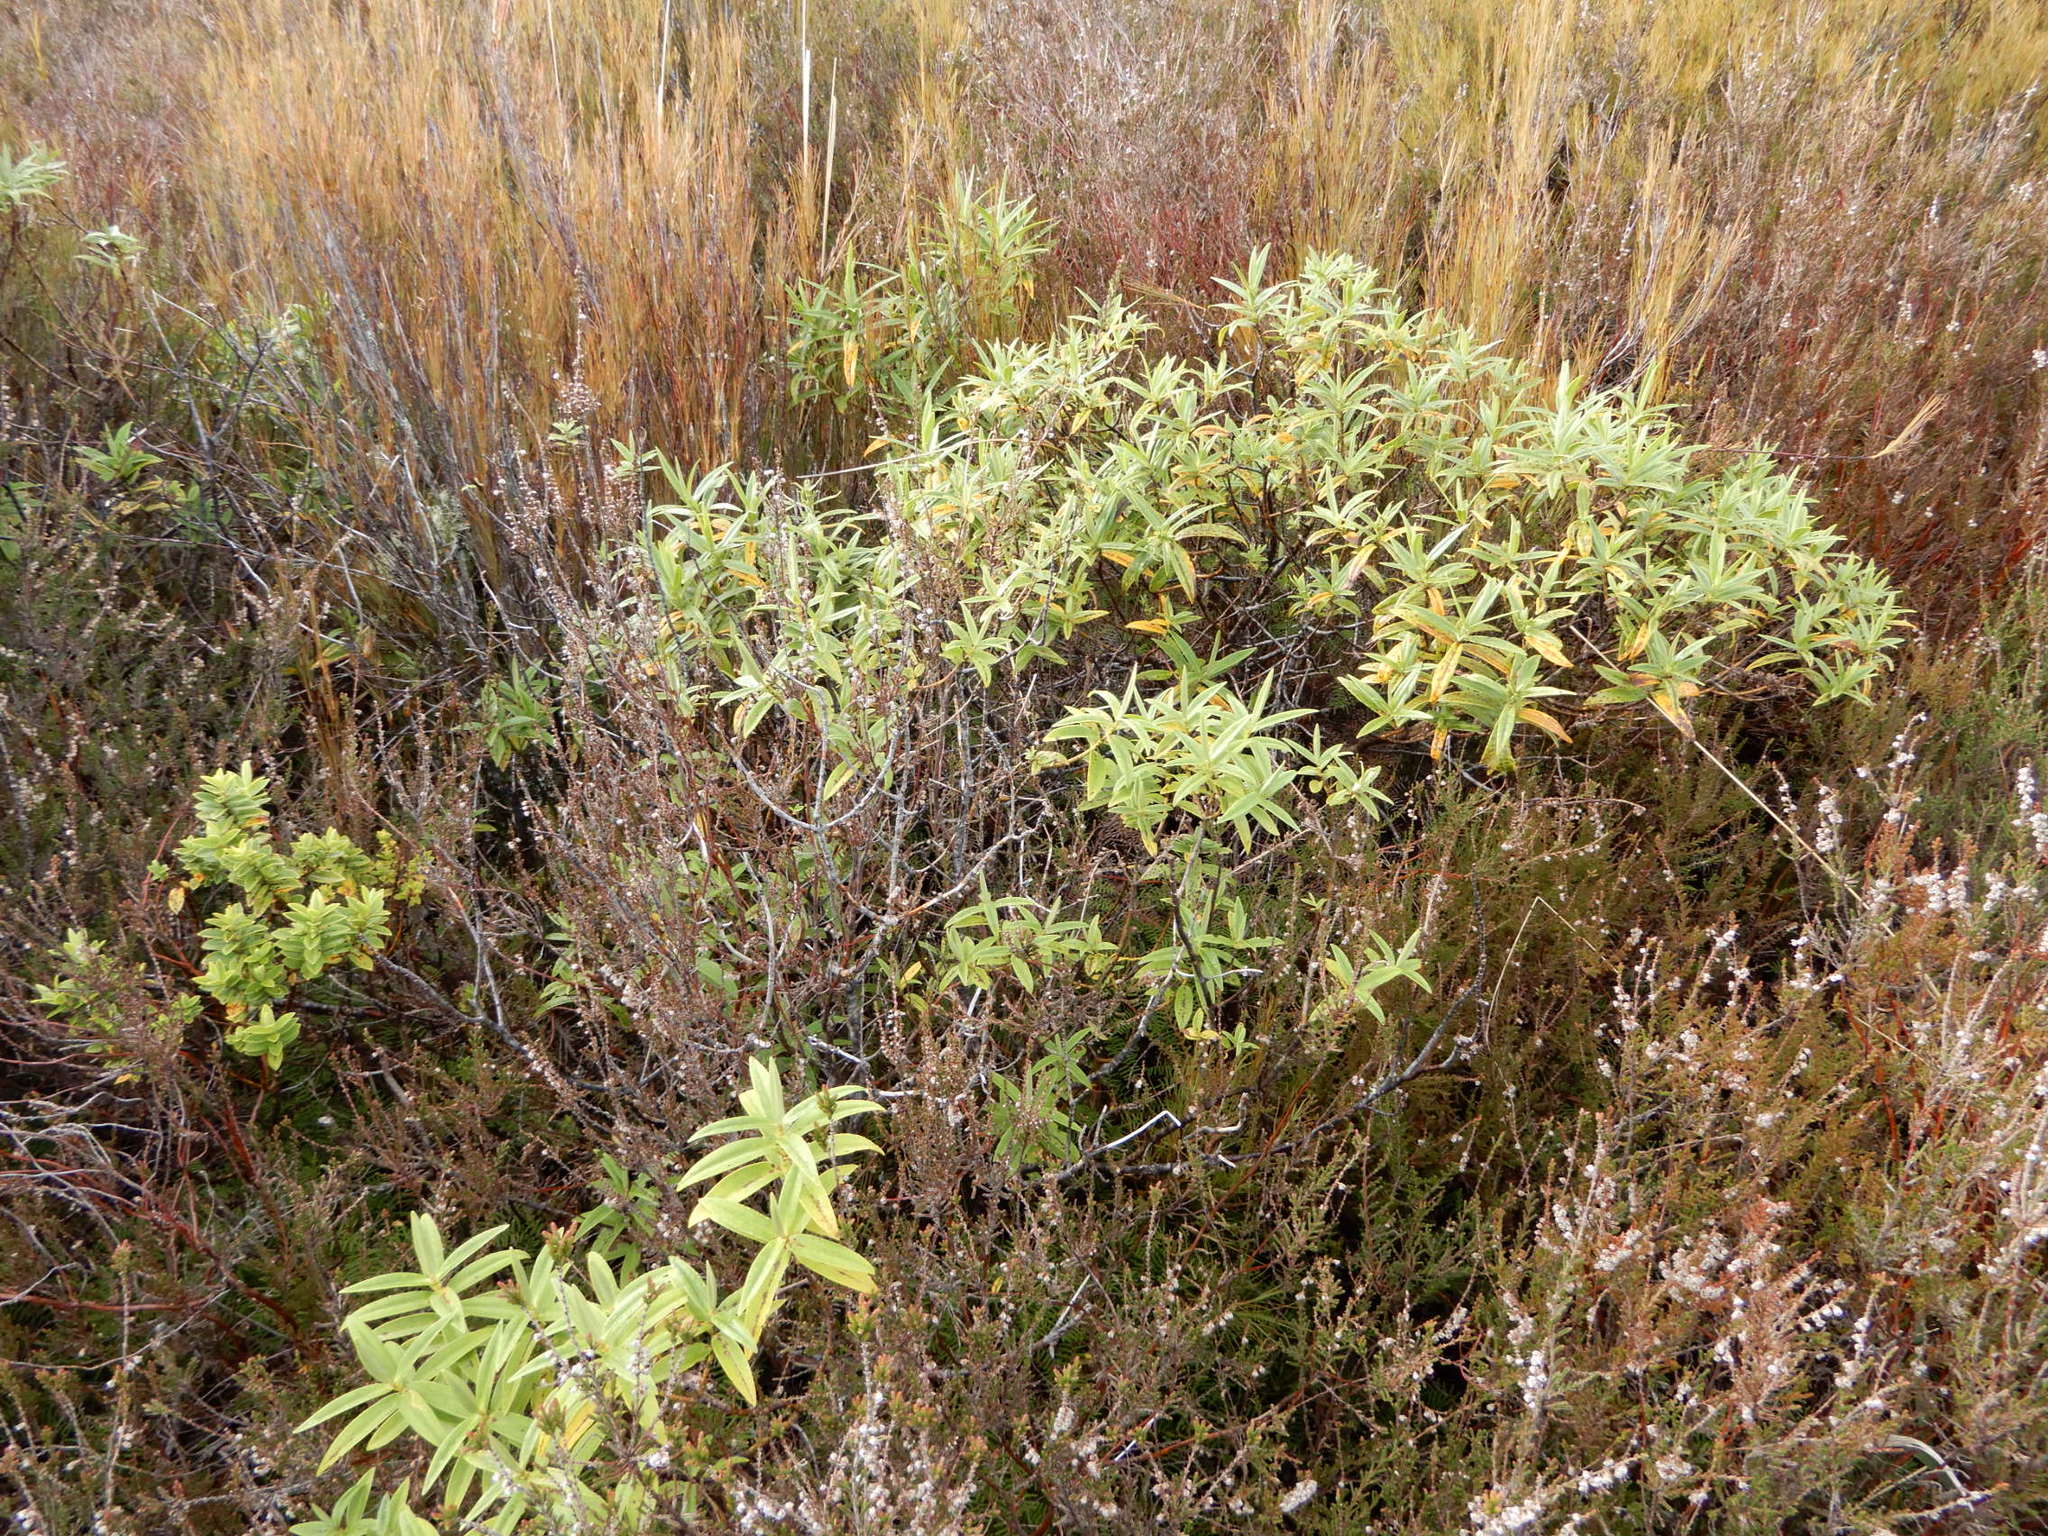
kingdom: Plantae
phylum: Tracheophyta
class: Magnoliopsida
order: Lamiales
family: Plantaginaceae
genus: Veronica
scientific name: Veronica stricta
